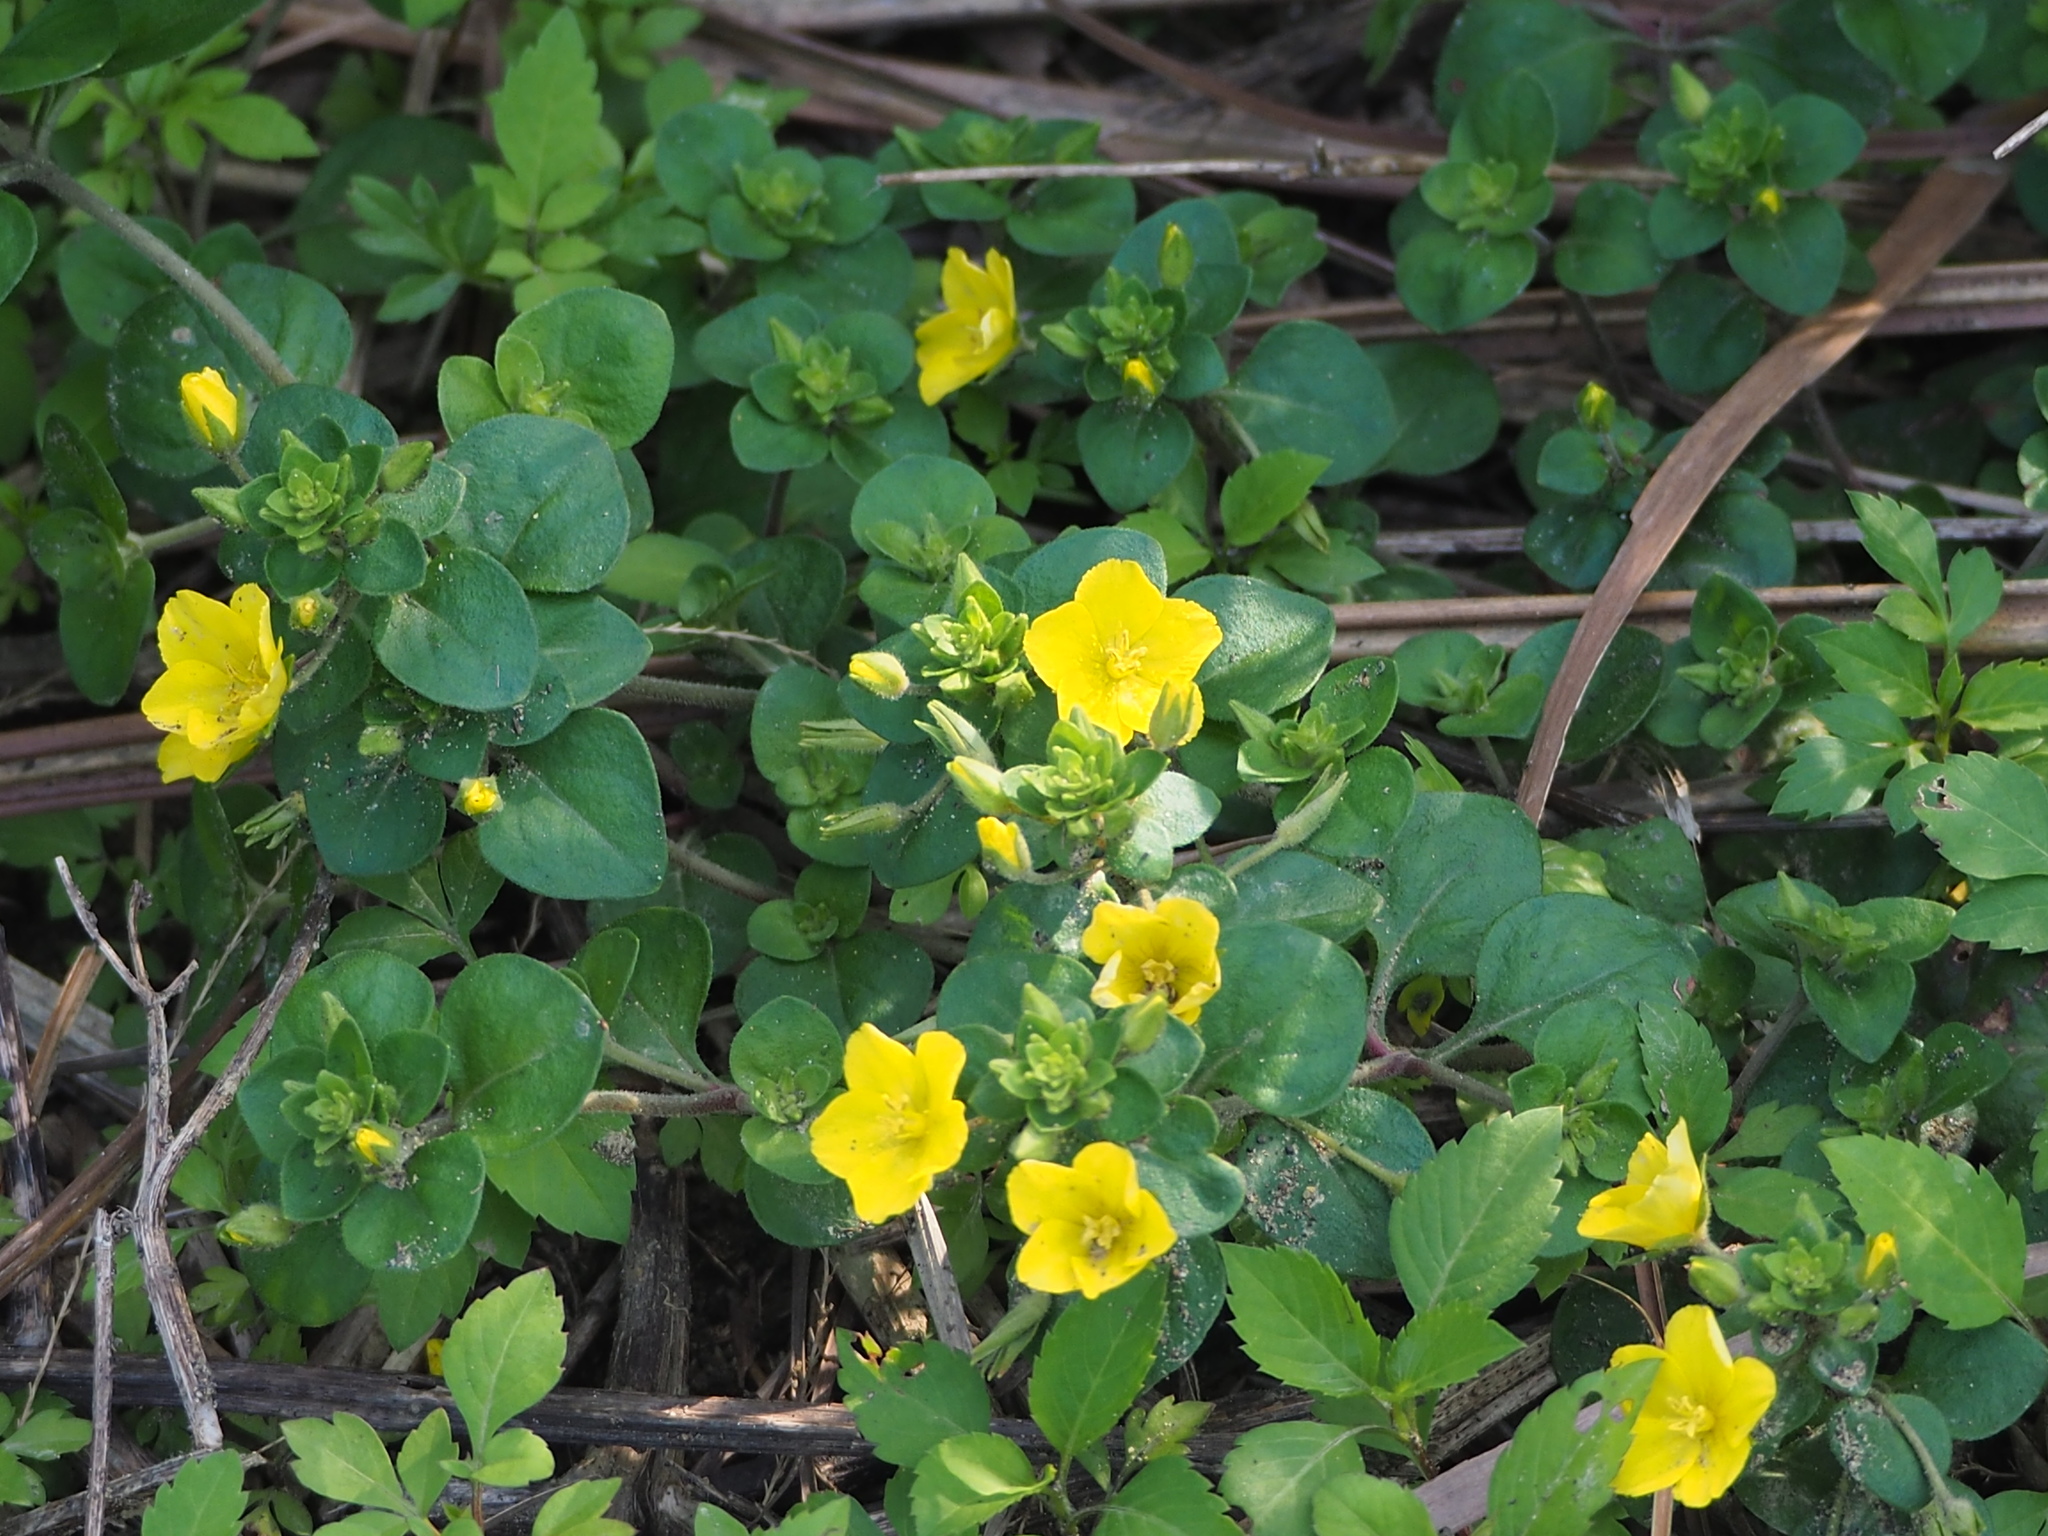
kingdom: Plantae
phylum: Tracheophyta
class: Magnoliopsida
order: Ericales
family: Primulaceae
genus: Lysimachia
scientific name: Lysimachia remota
